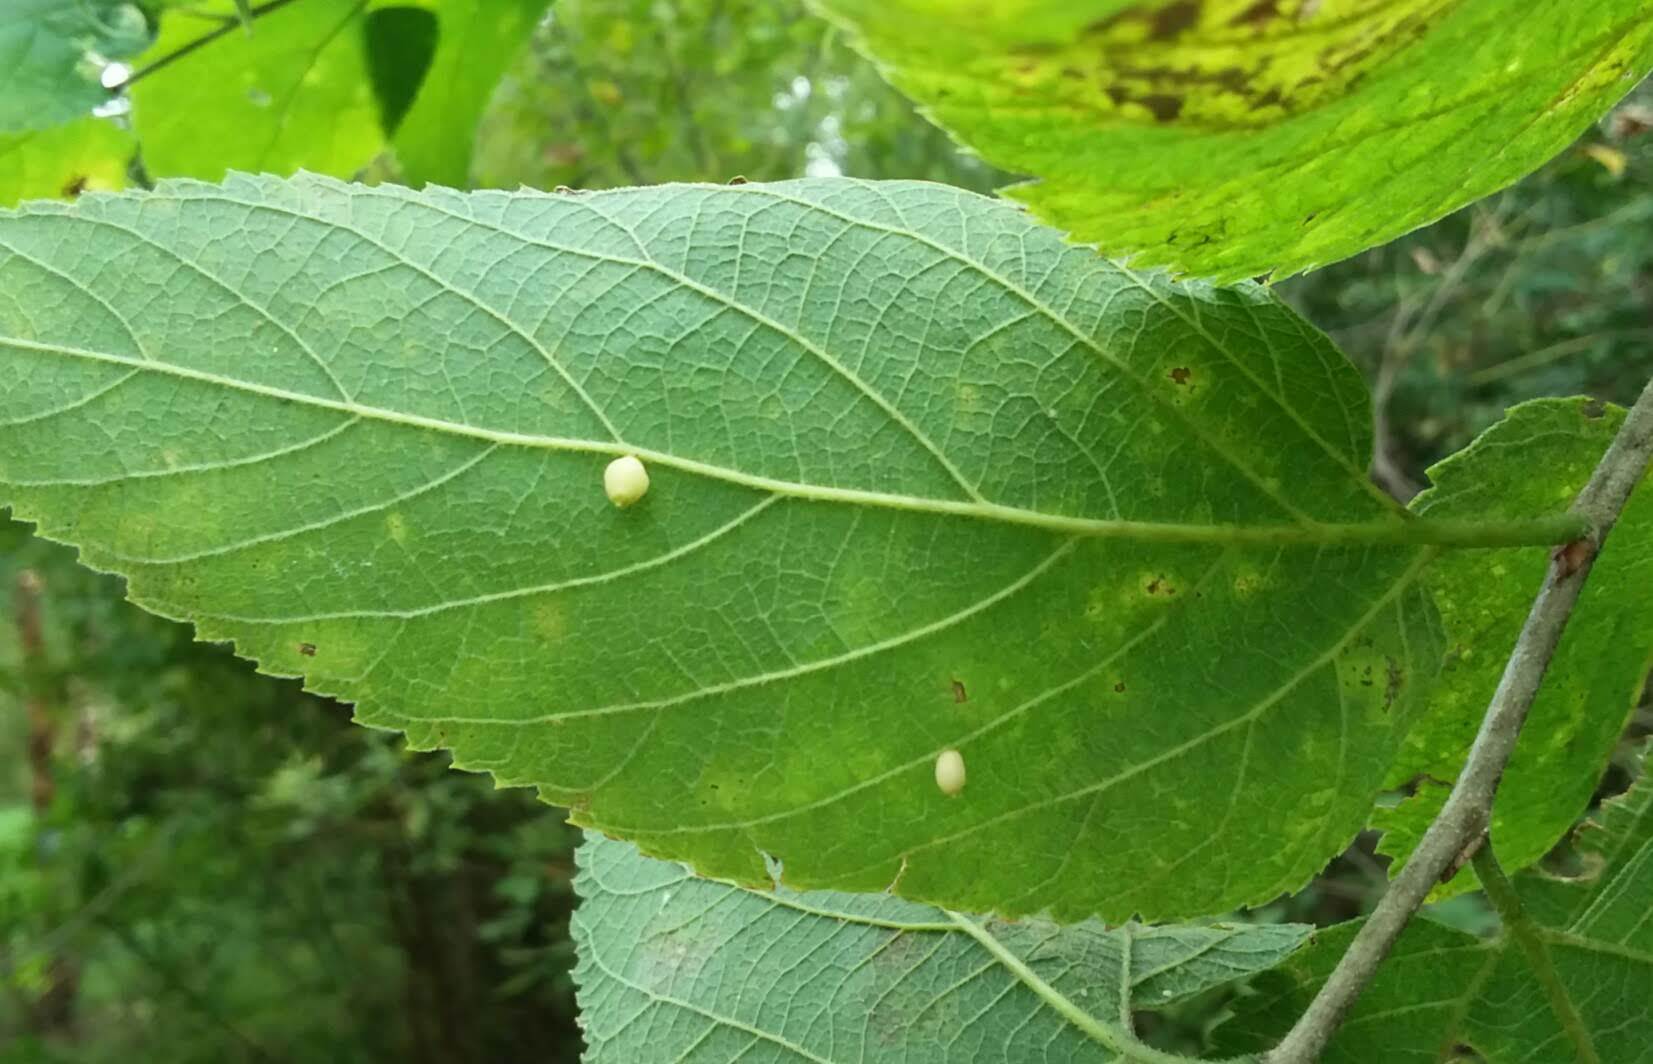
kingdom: Animalia
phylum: Arthropoda
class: Insecta
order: Diptera
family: Cecidomyiidae
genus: Celticecis
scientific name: Celticecis globosa
